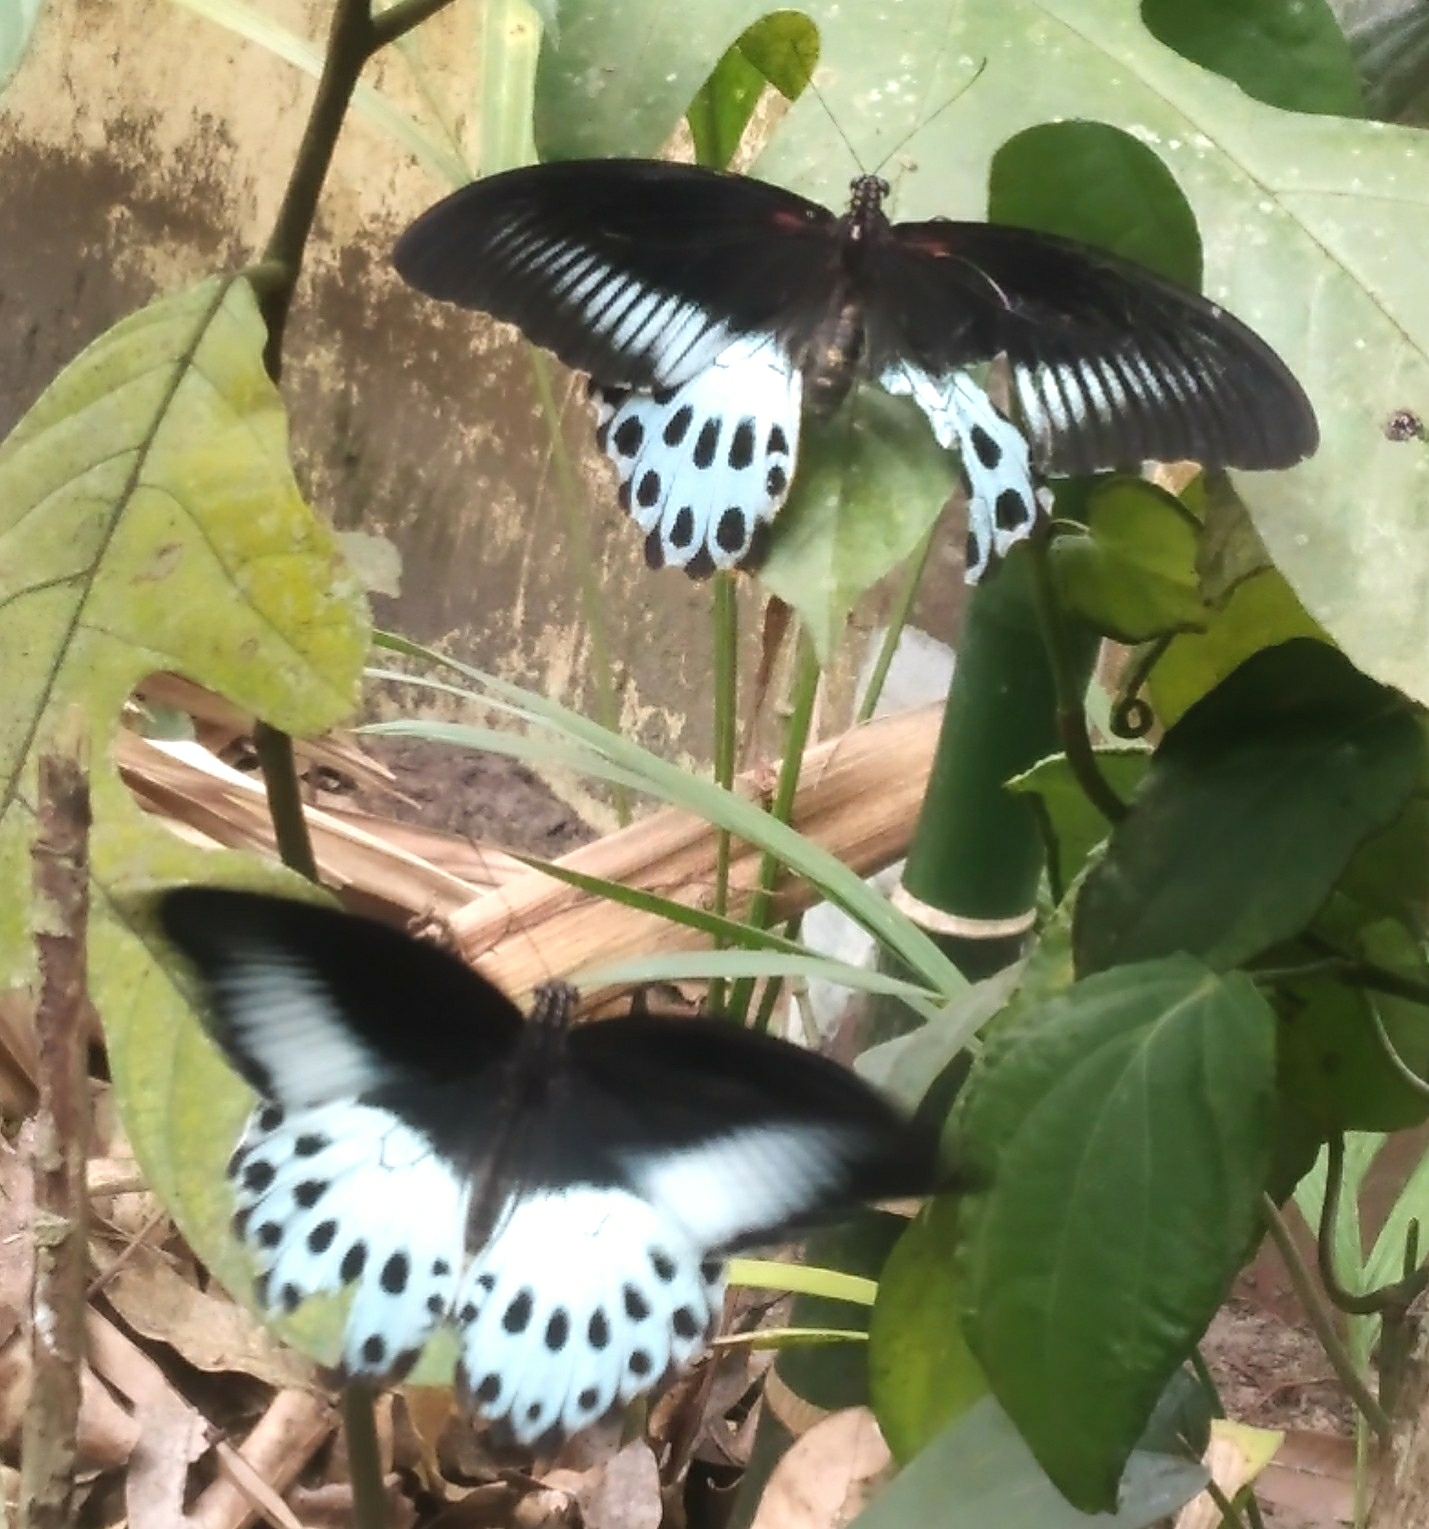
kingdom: Animalia
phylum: Arthropoda
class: Insecta
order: Lepidoptera
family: Papilionidae
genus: Papilio
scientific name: Papilio memnon
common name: Great mormon
